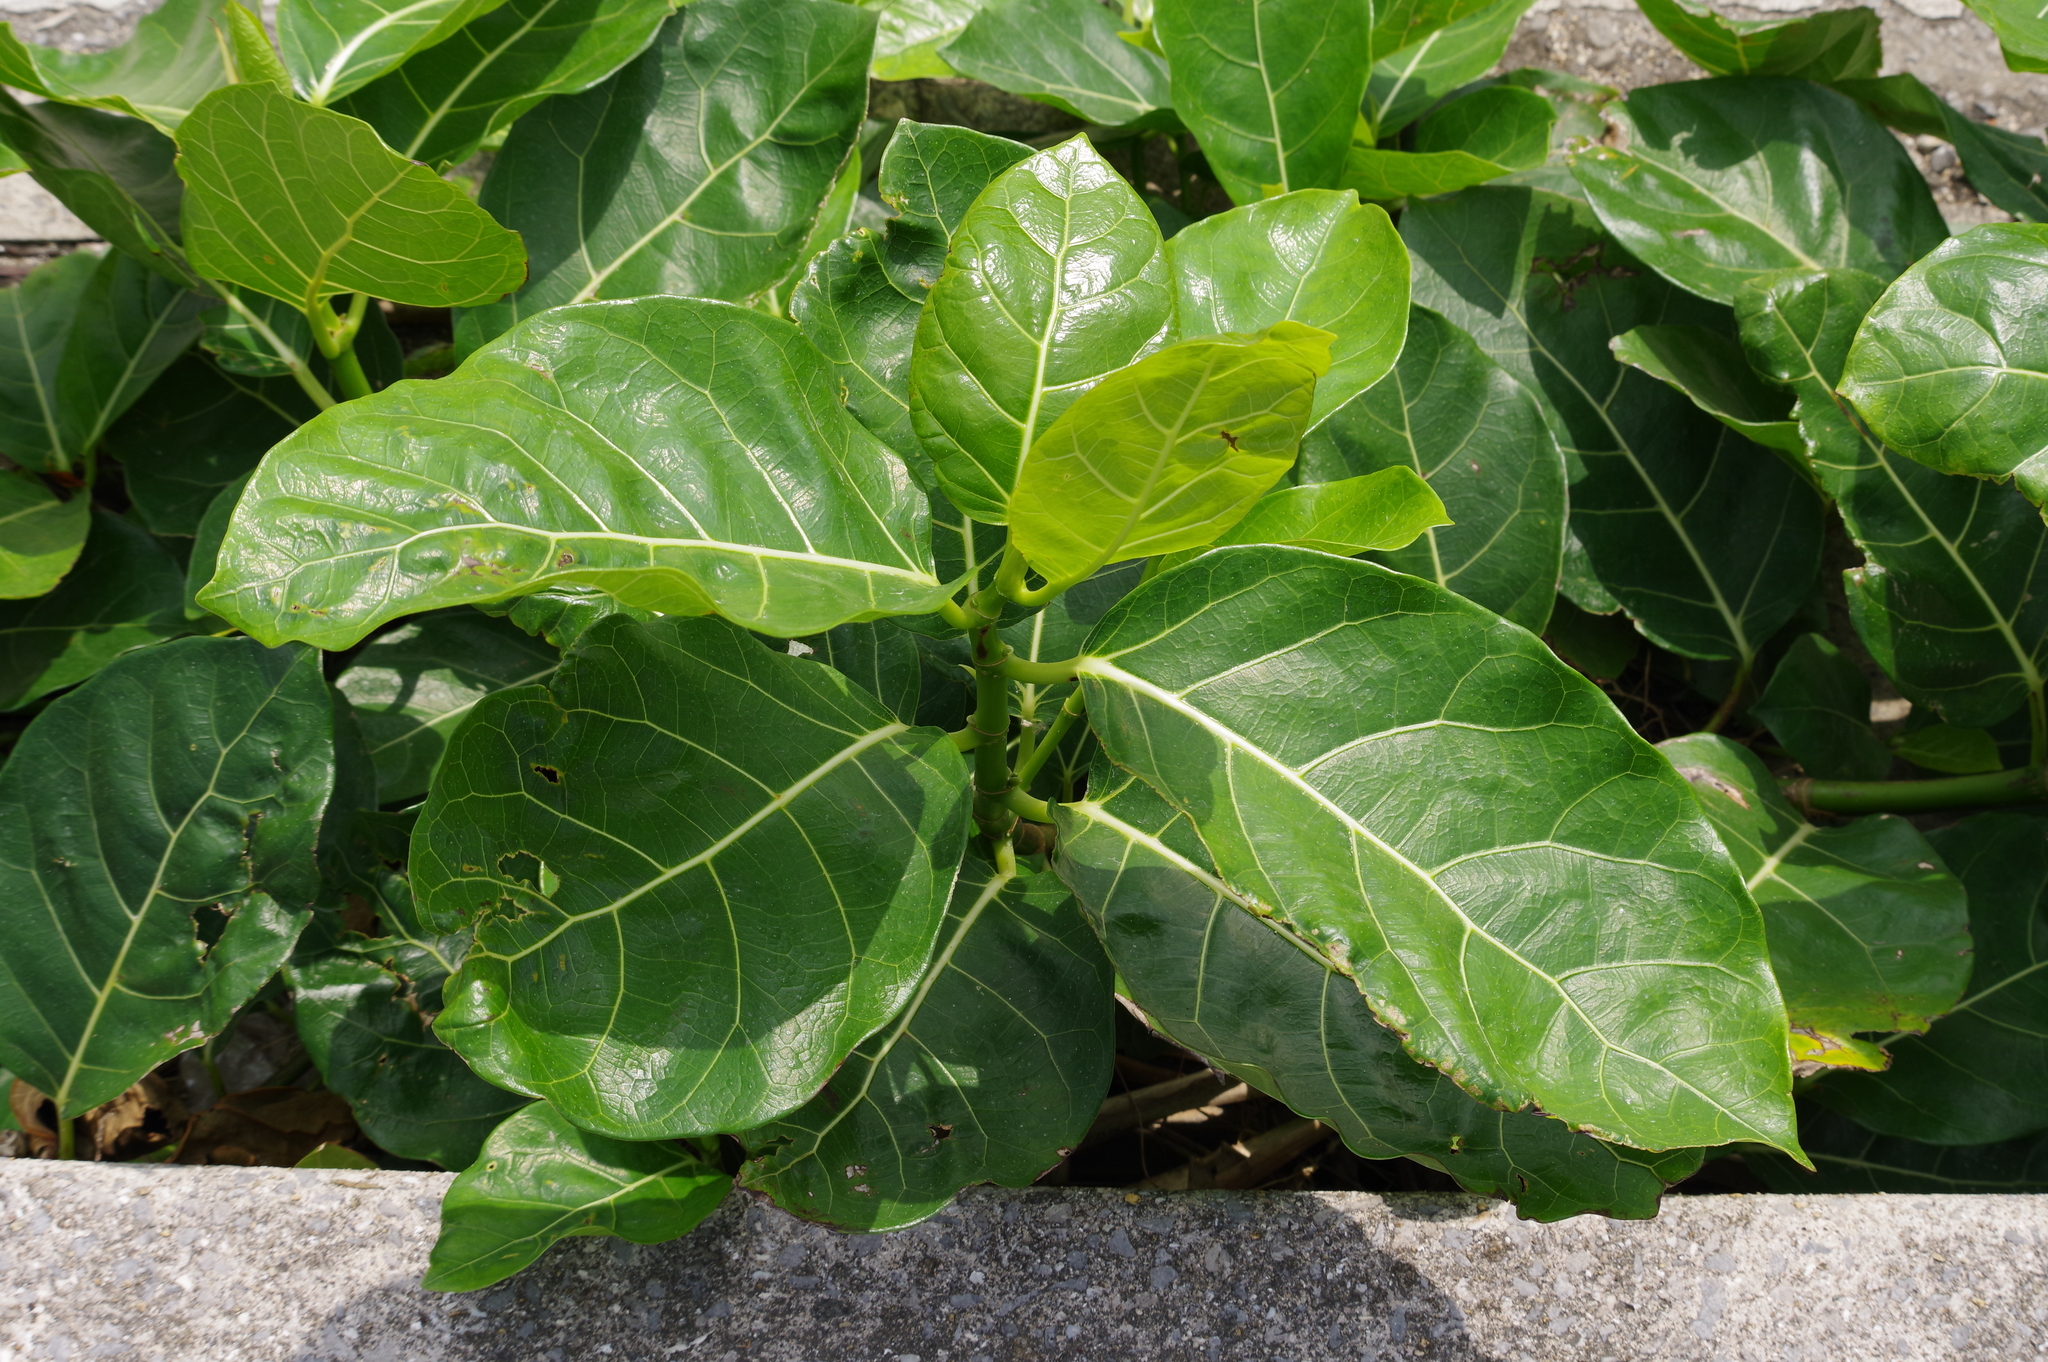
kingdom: Plantae
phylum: Tracheophyta
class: Magnoliopsida
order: Rosales
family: Moraceae
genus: Ficus
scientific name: Ficus septica
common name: Septic fig
